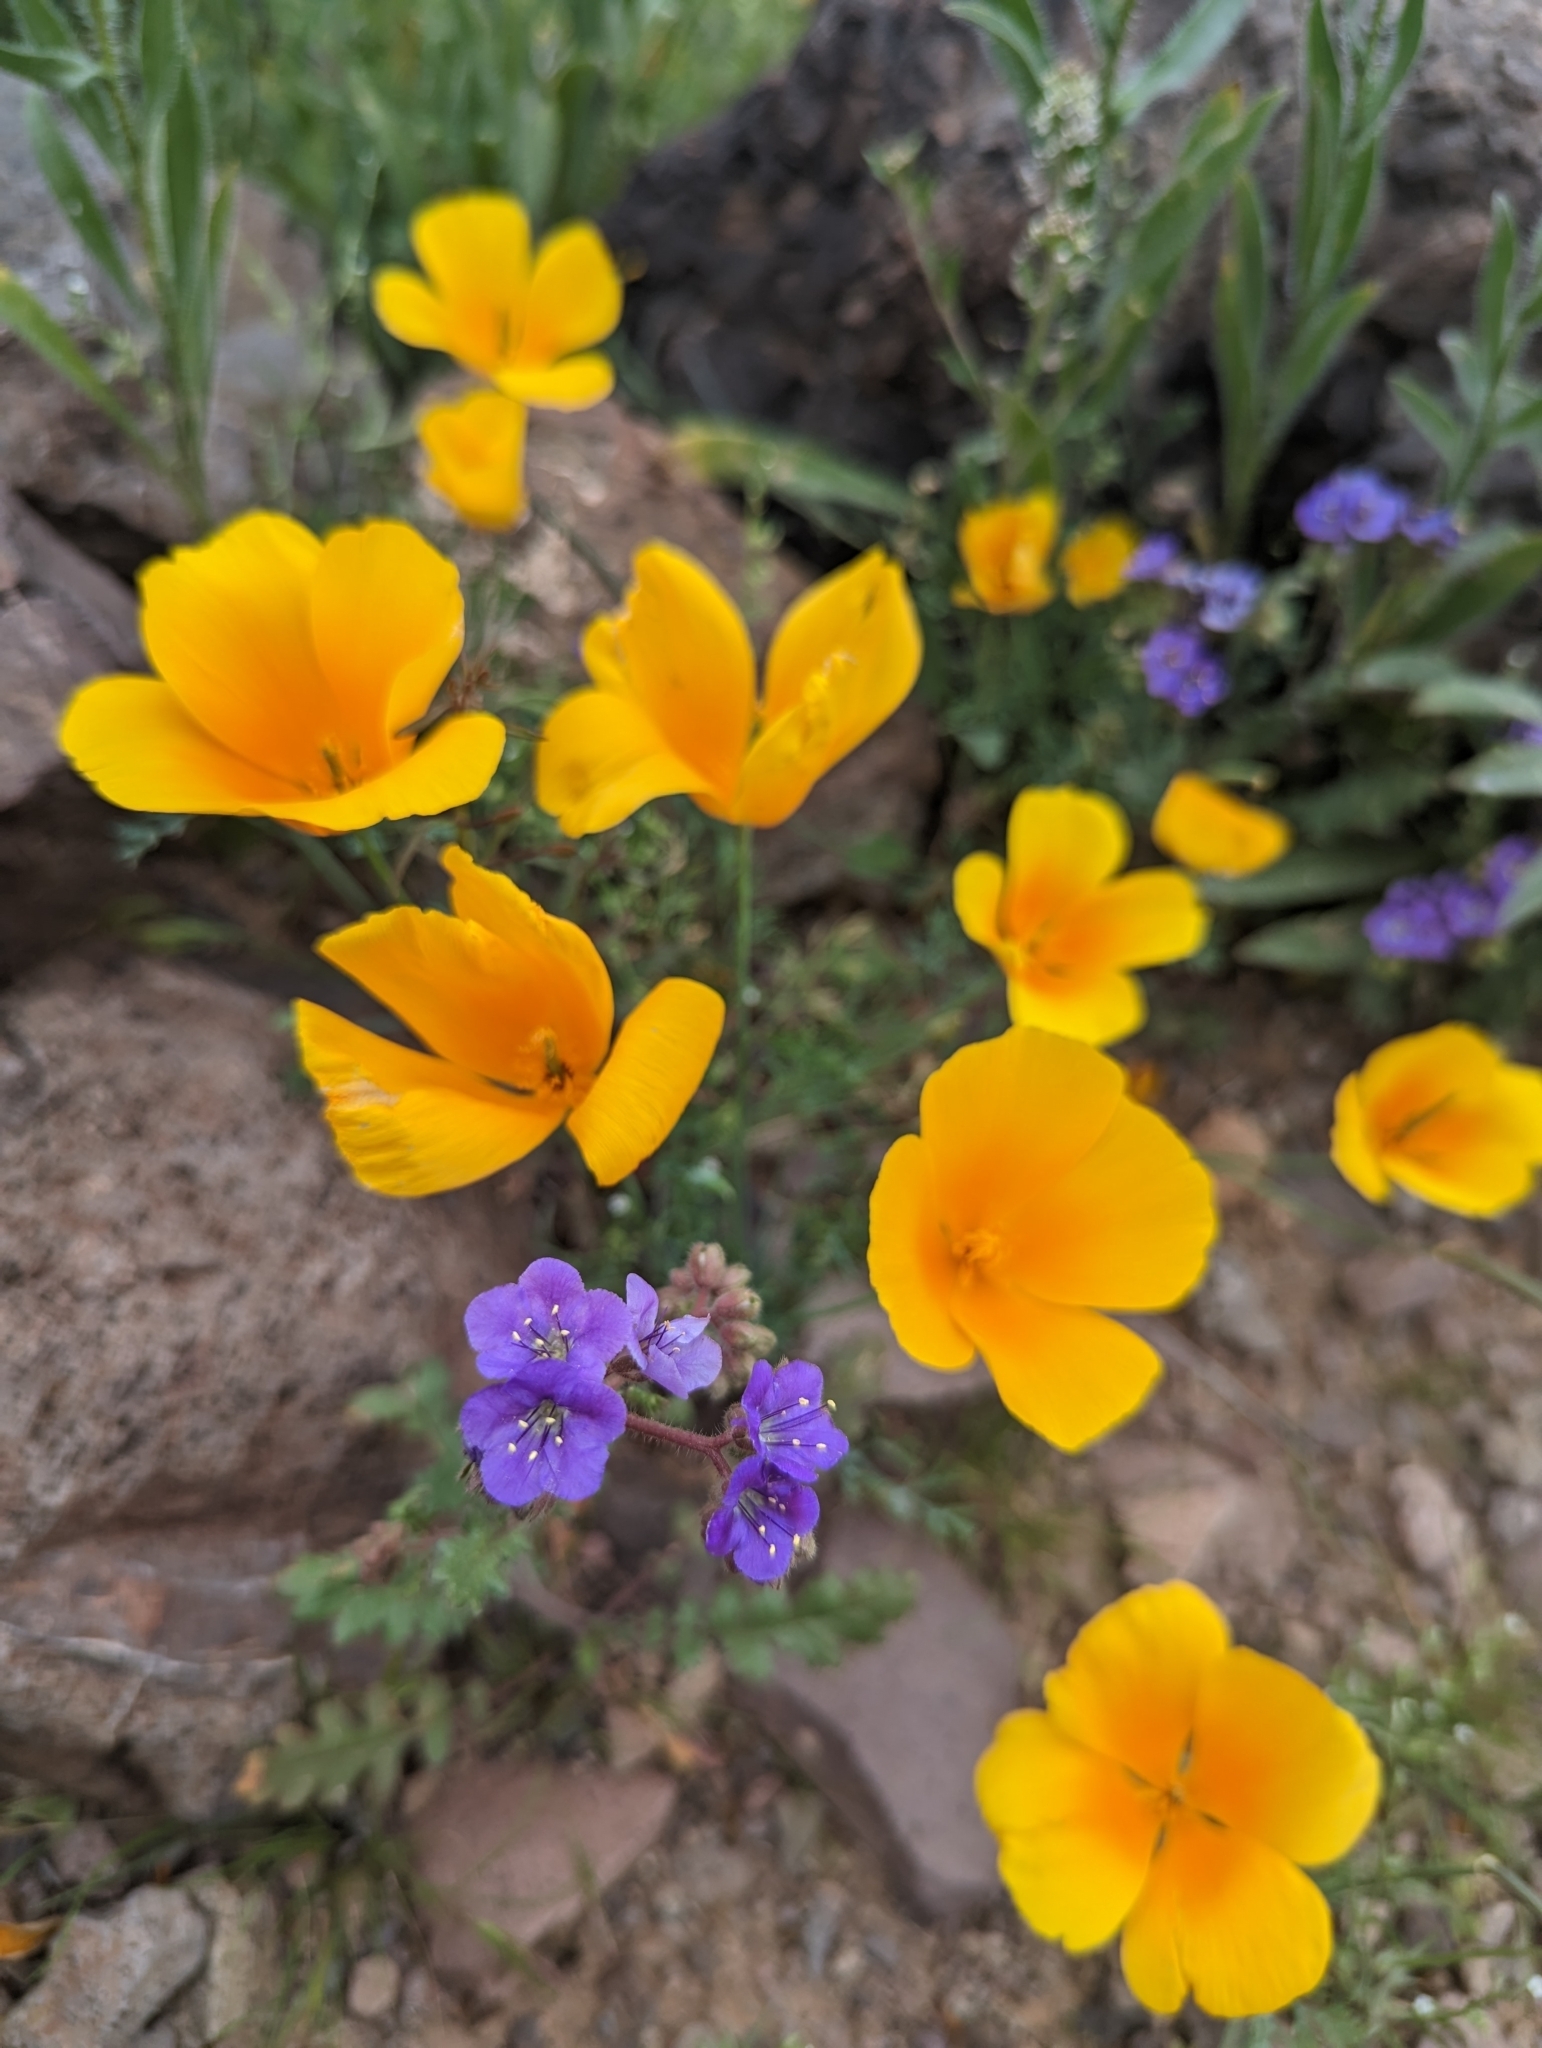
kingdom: Plantae
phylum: Tracheophyta
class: Magnoliopsida
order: Ranunculales
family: Papaveraceae
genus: Eschscholzia
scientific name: Eschscholzia californica
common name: California poppy
